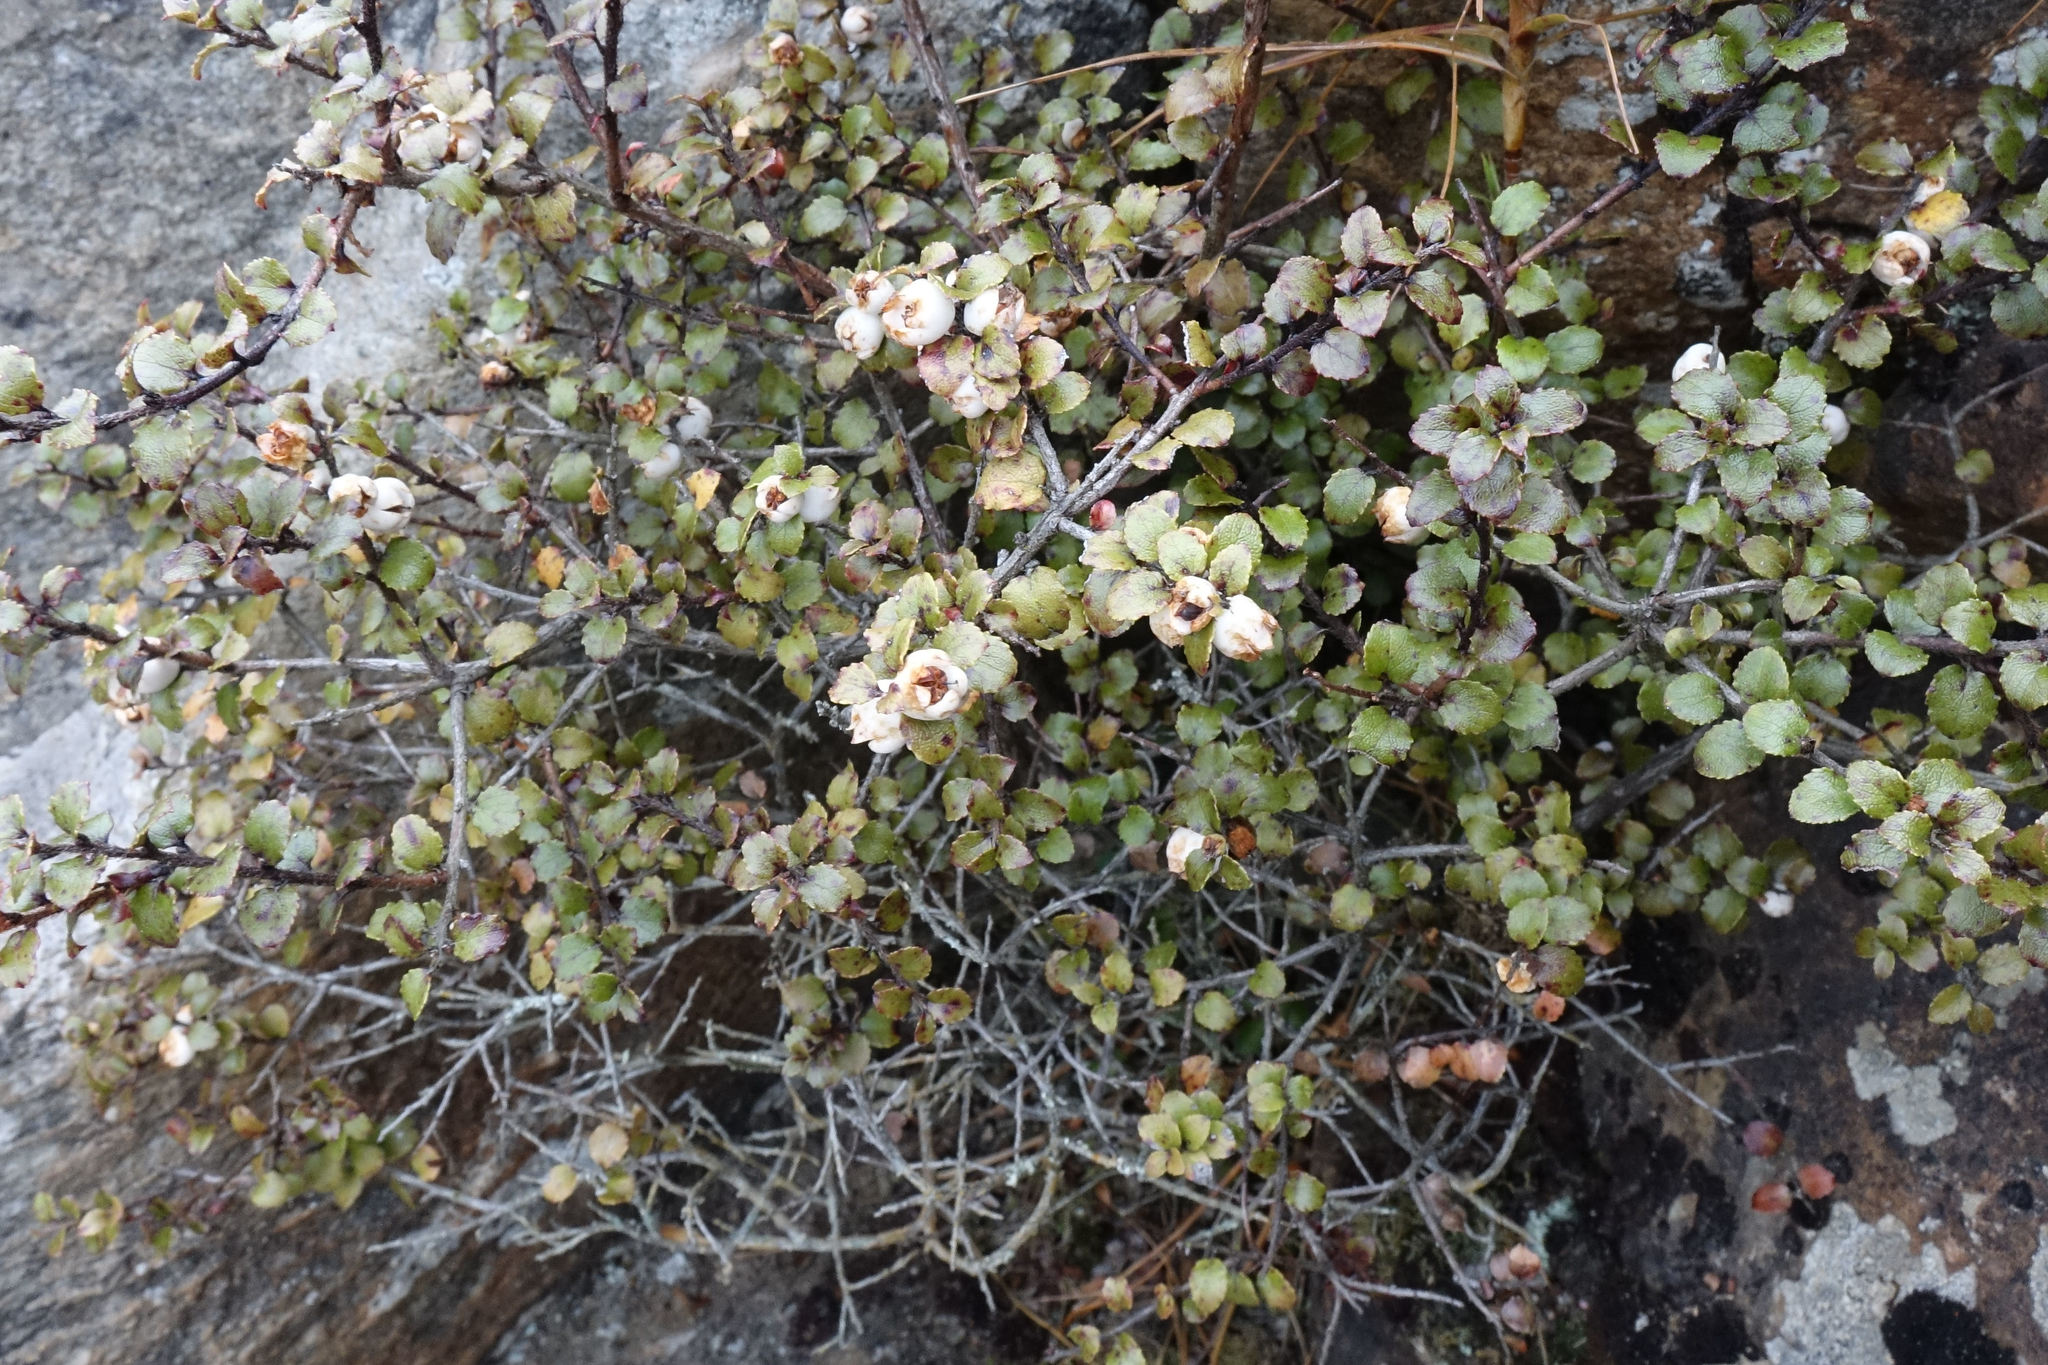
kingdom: Plantae
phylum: Tracheophyta
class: Magnoliopsida
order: Ericales
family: Ericaceae
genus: Gaultheria
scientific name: Gaultheria antipoda
